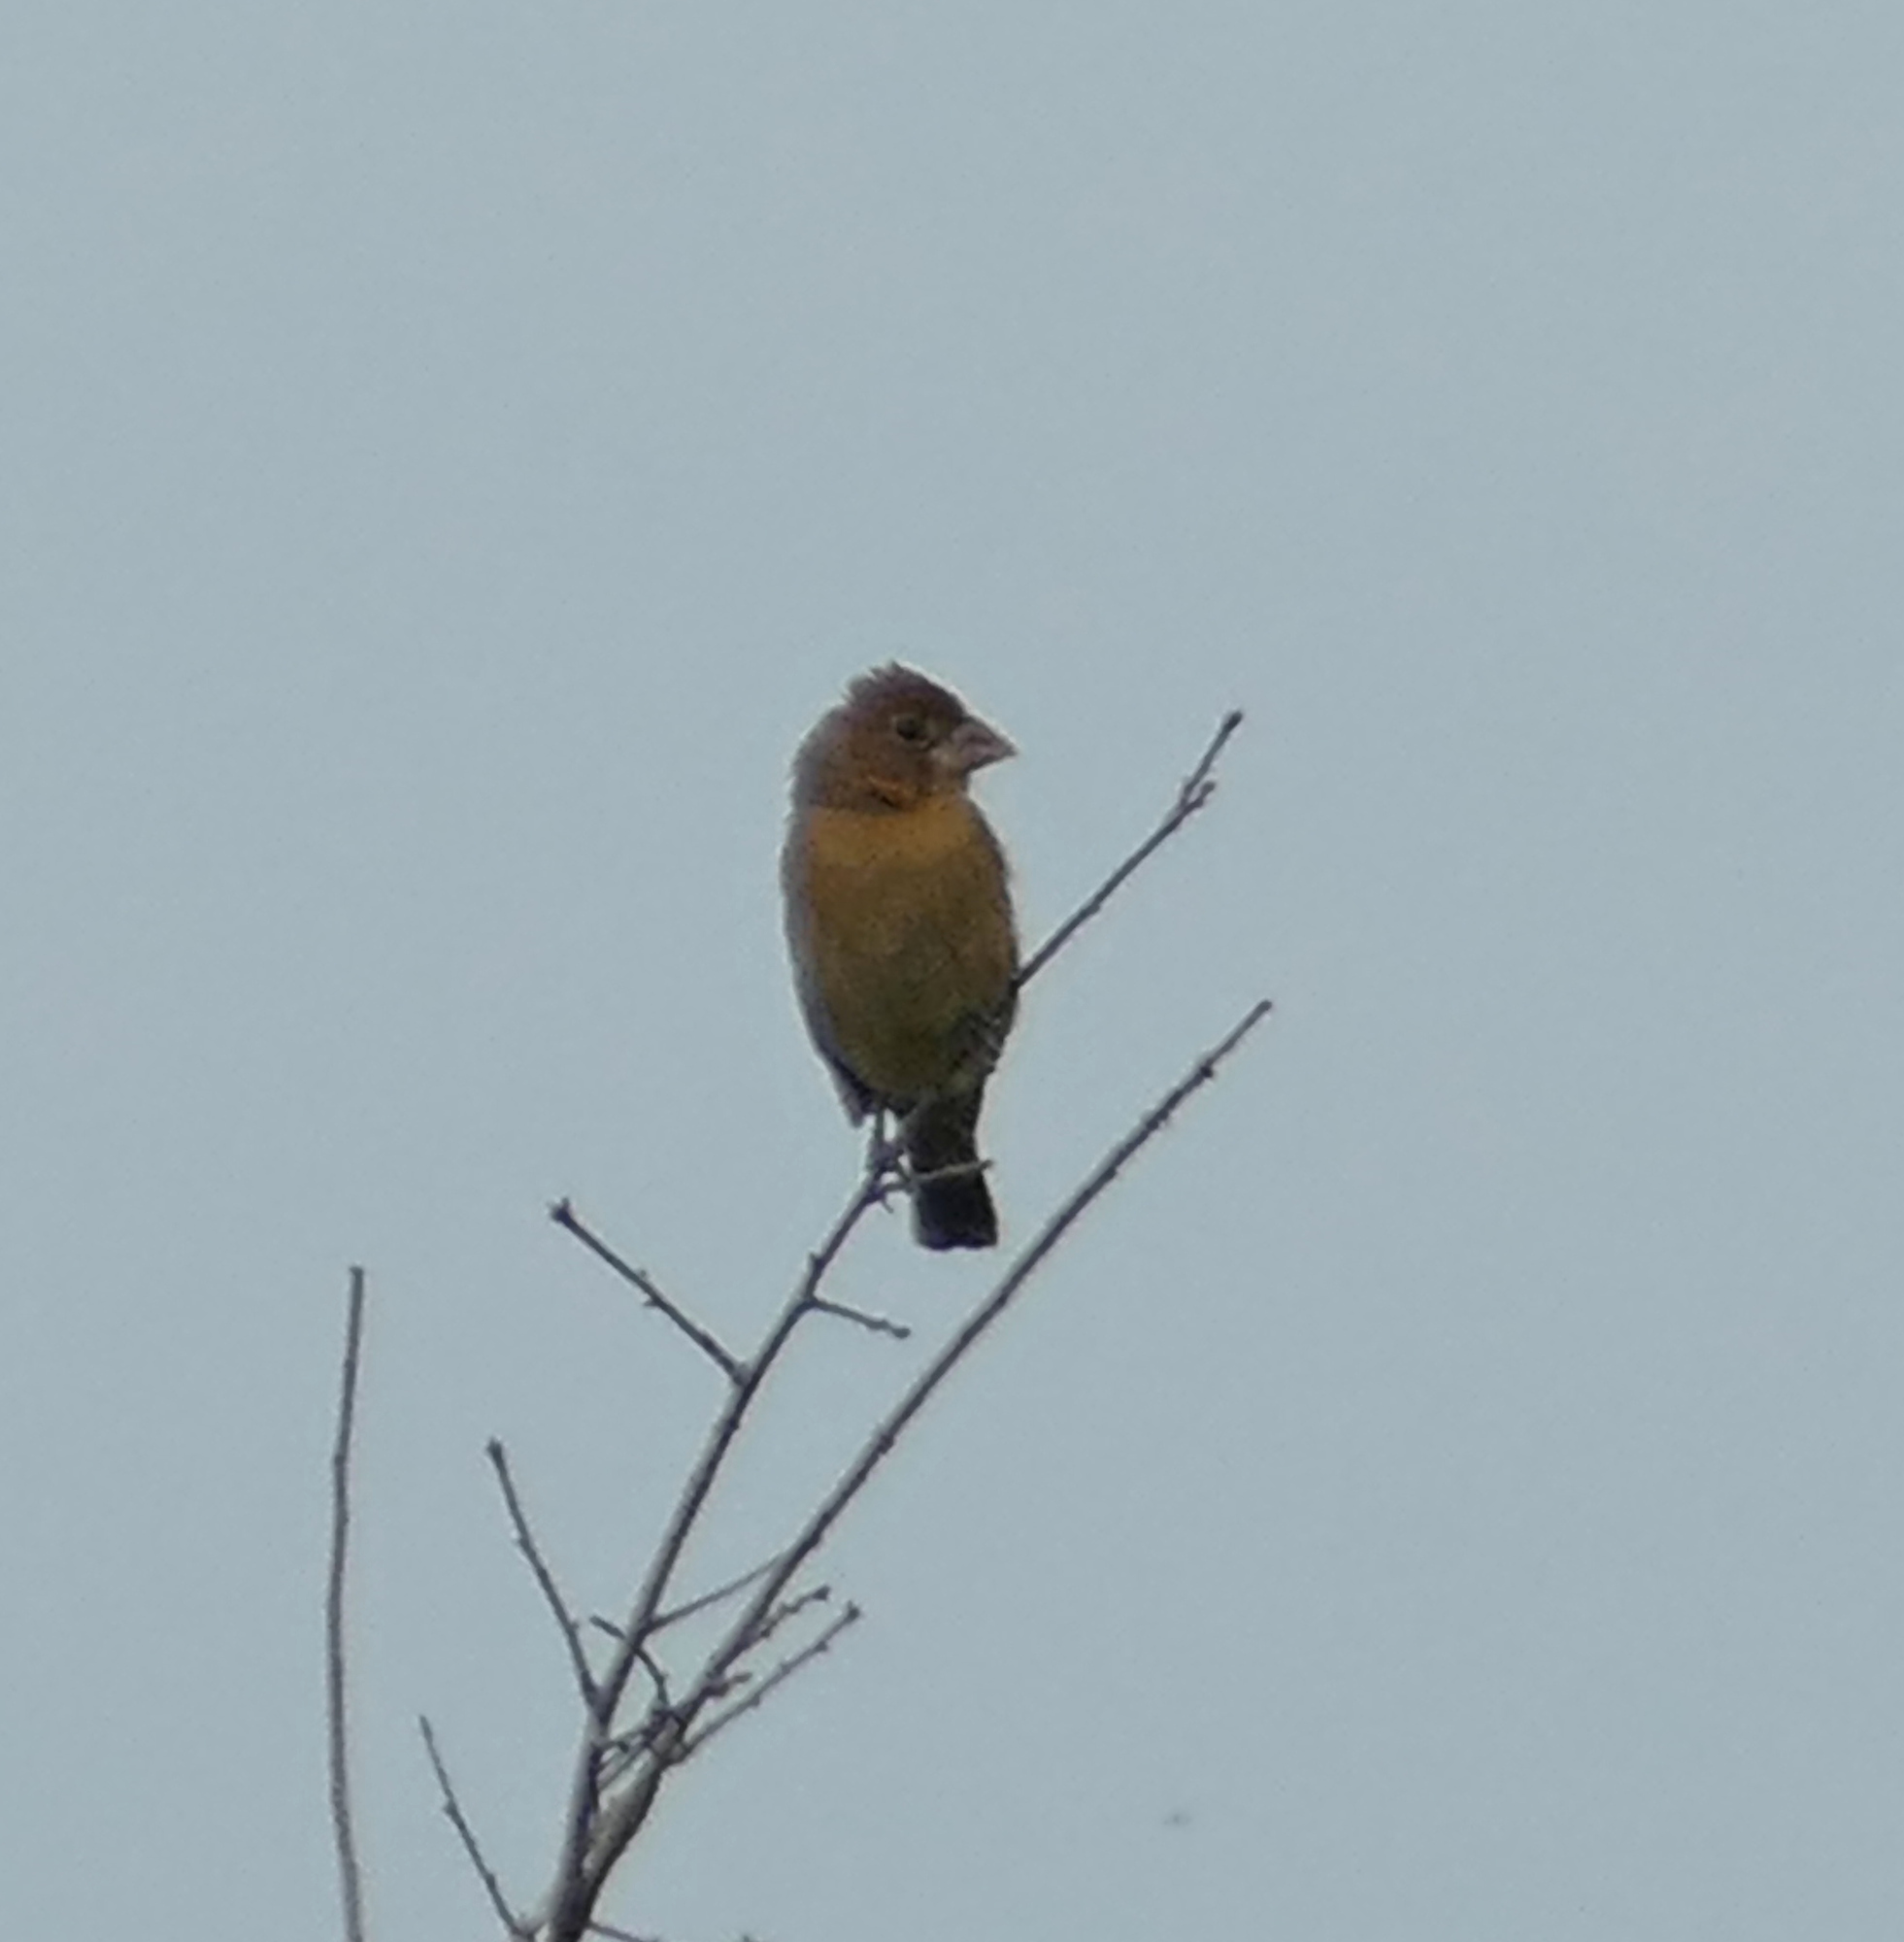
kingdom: Animalia
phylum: Chordata
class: Aves
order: Passeriformes
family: Cardinalidae
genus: Passerina
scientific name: Passerina caerulea
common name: Blue grosbeak
